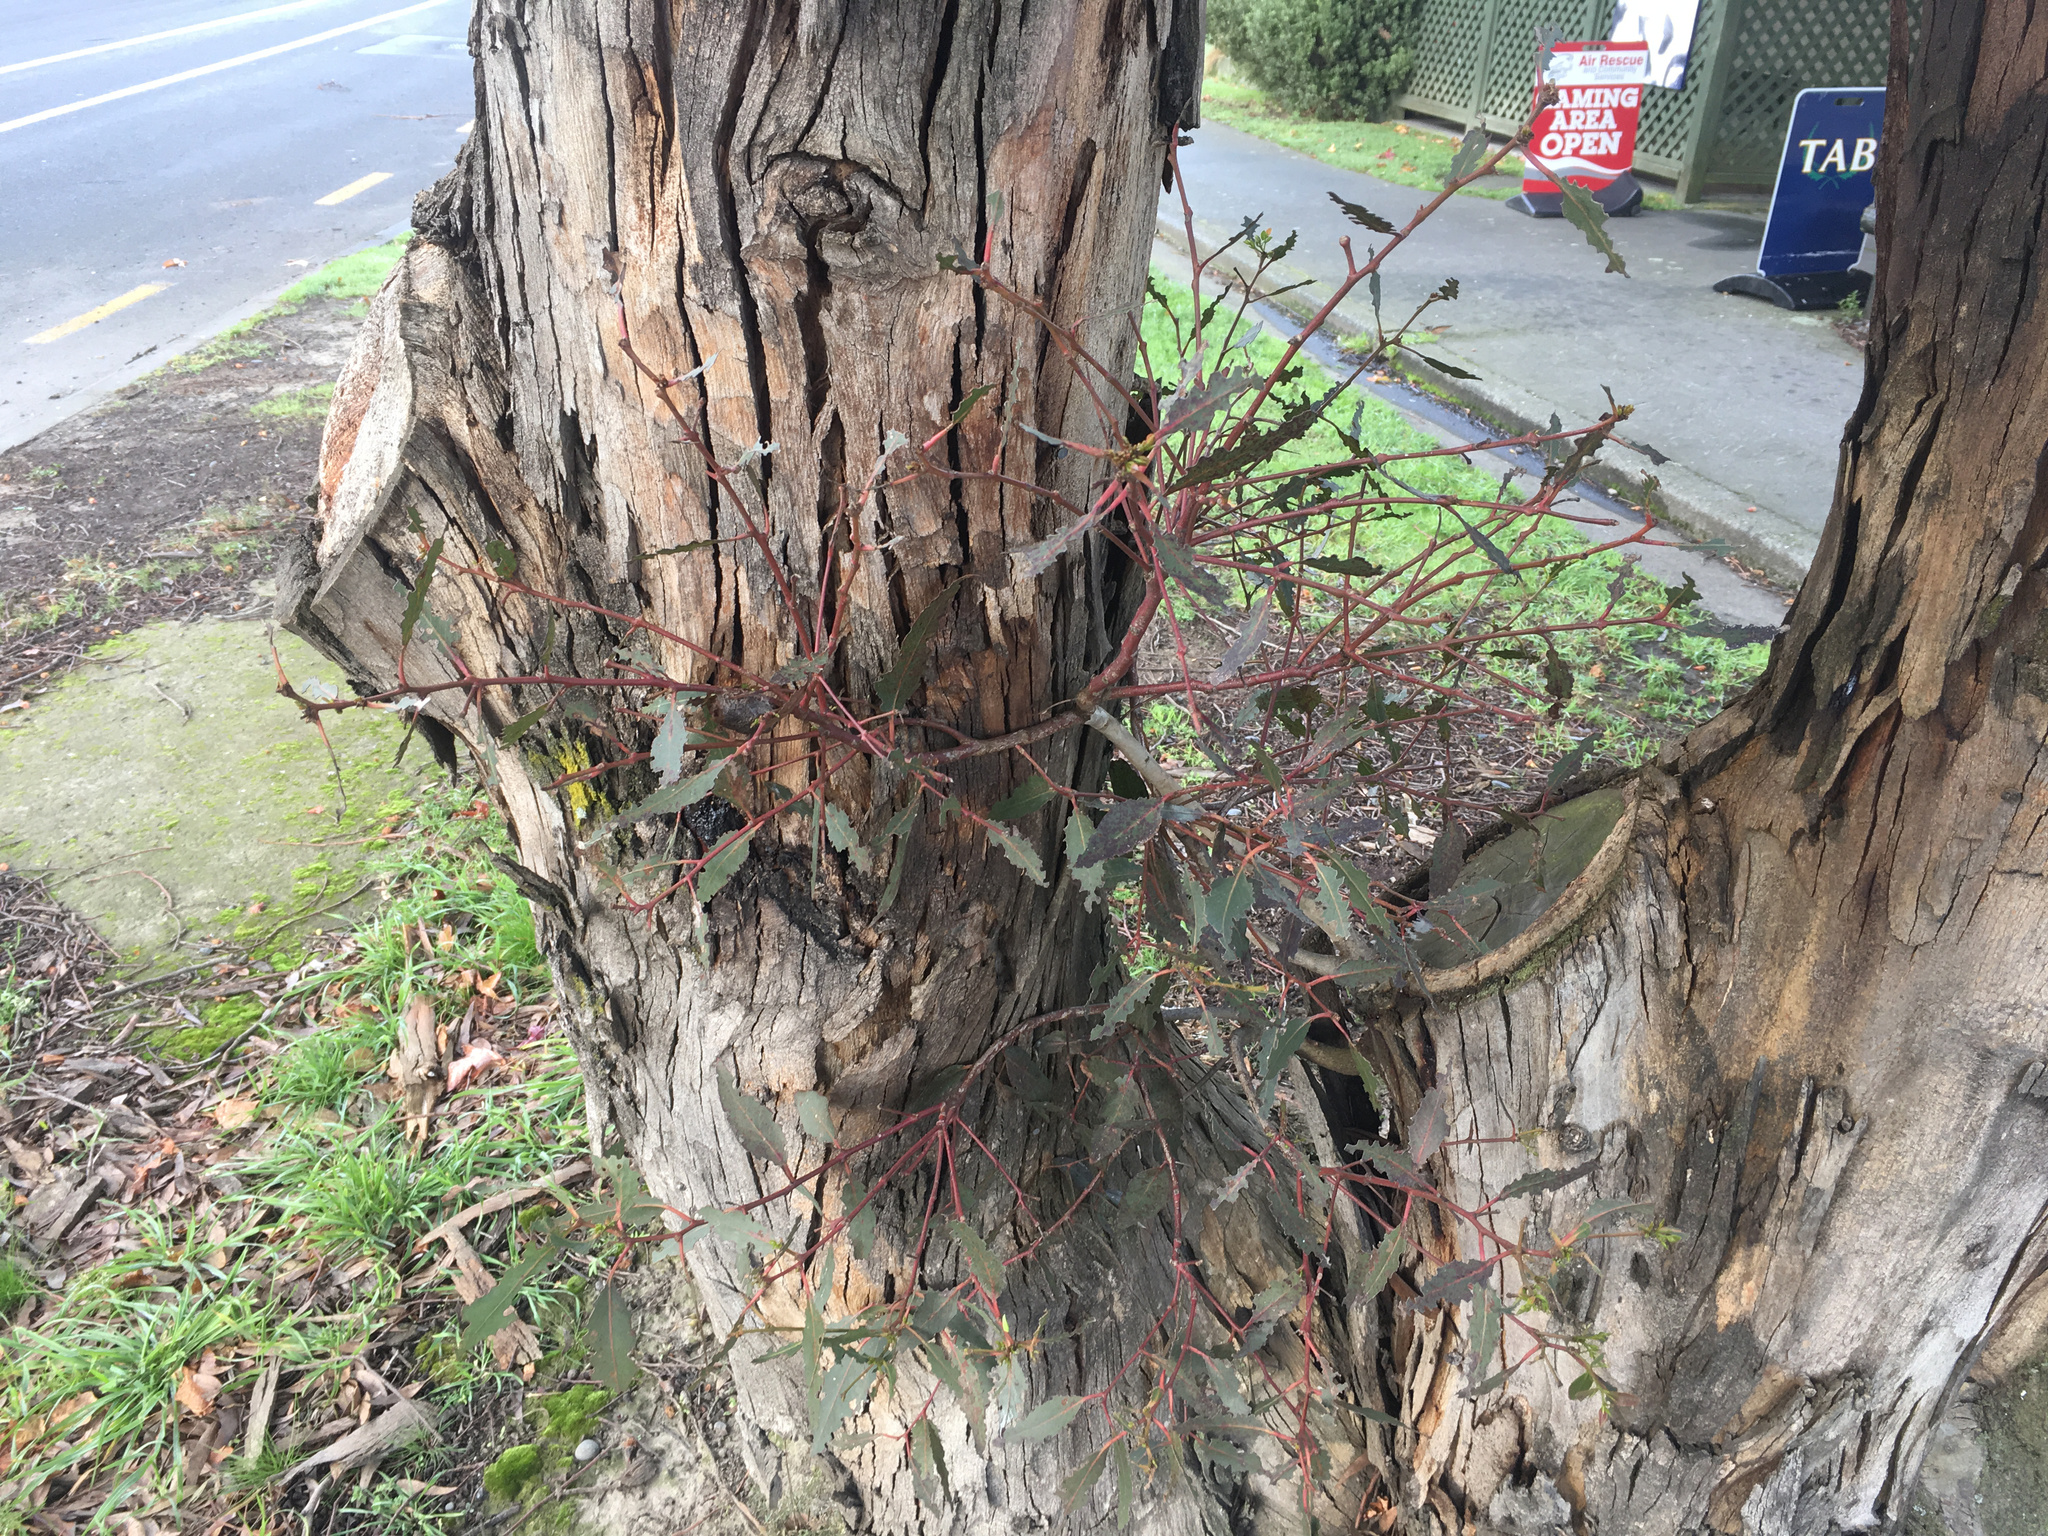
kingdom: Animalia
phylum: Arthropoda
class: Insecta
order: Lepidoptera
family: Saturniidae
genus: Opodiphthera
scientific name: Opodiphthera
